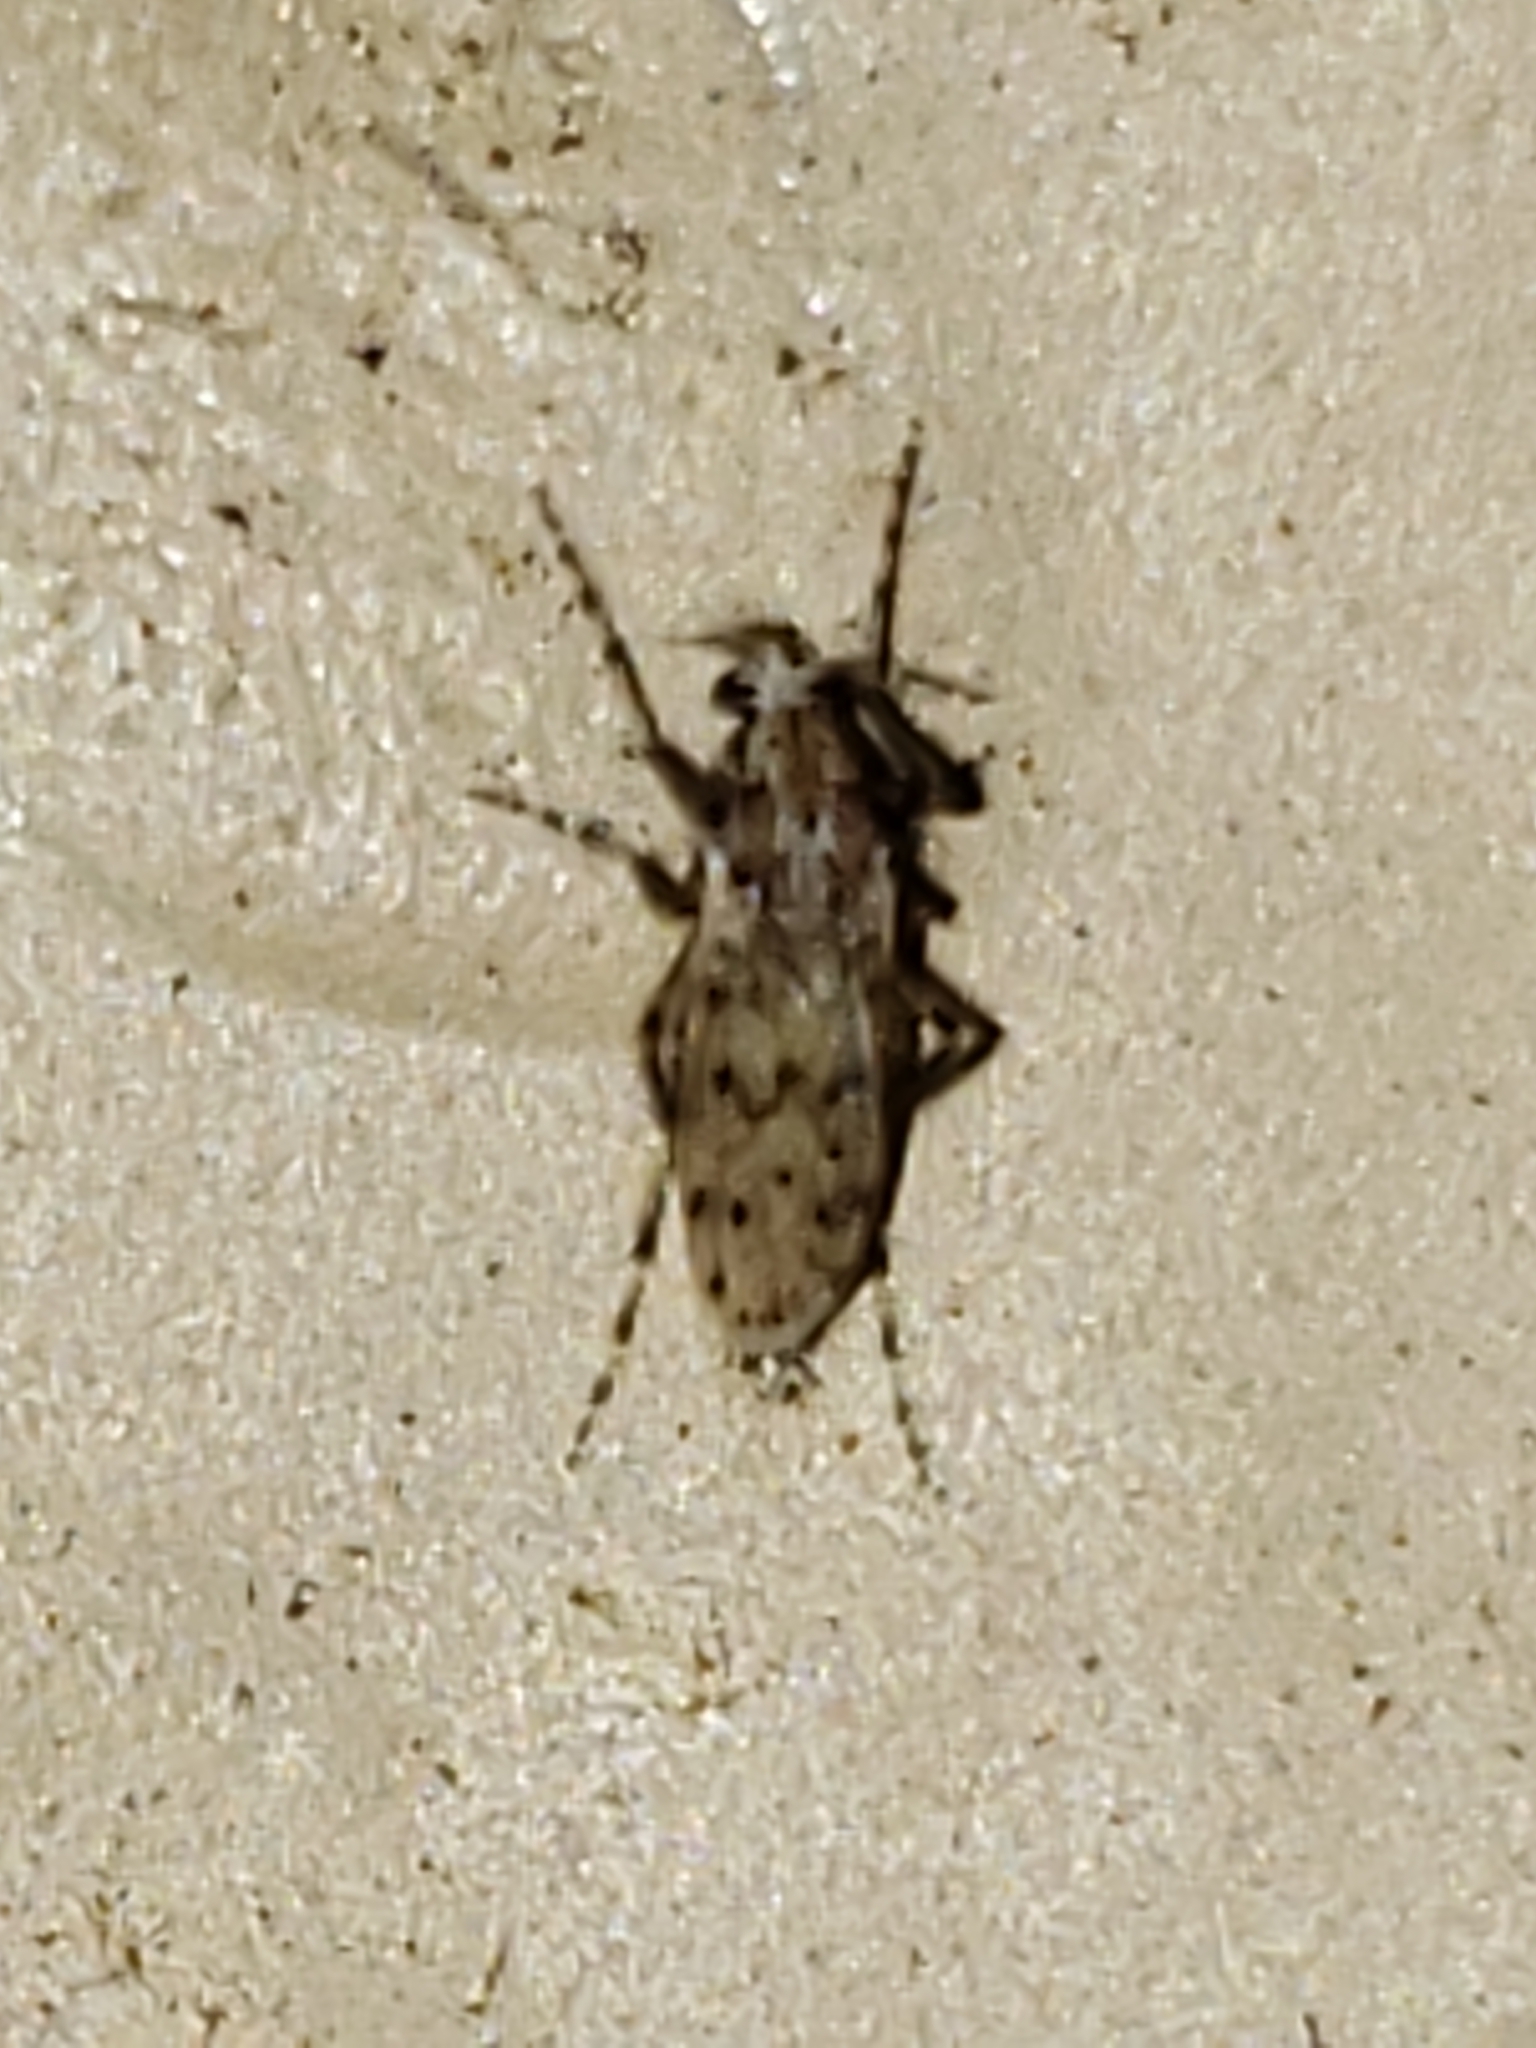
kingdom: Animalia
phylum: Arthropoda
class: Insecta
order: Diptera
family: Chaoboridae
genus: Chaoborus
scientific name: Chaoborus punctipennis
